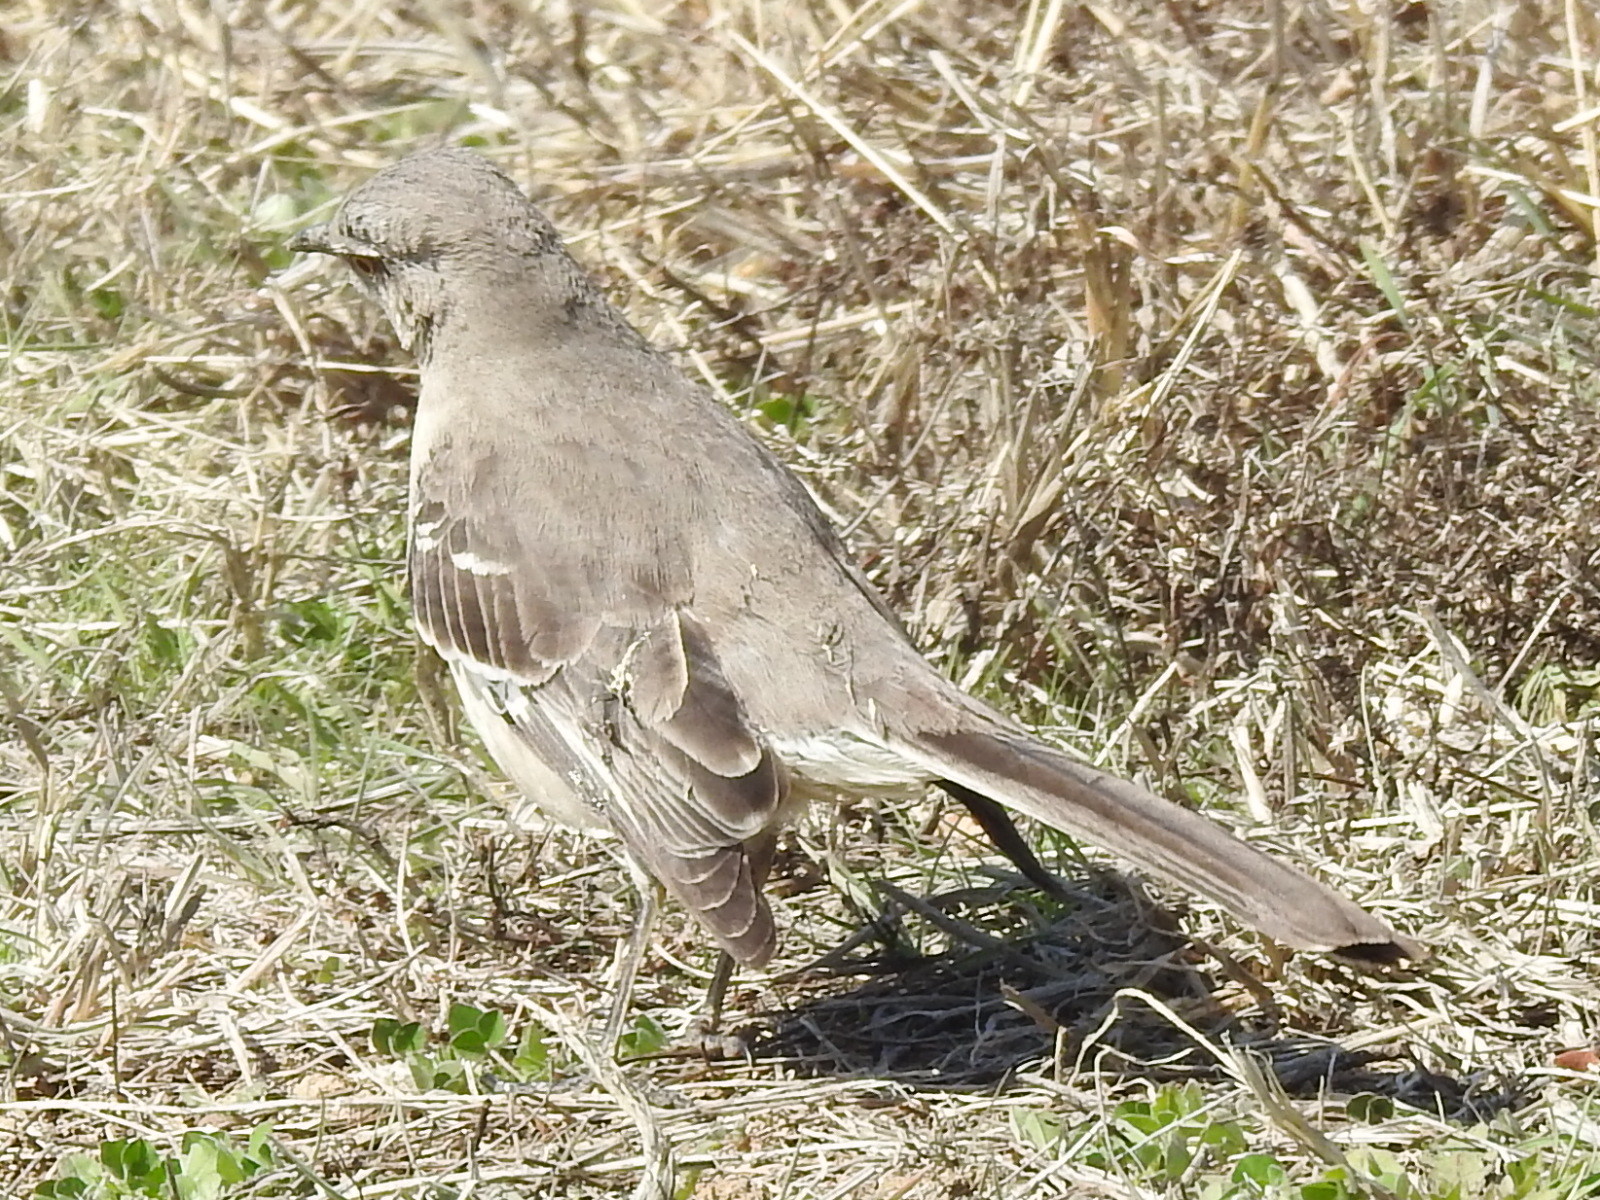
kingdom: Animalia
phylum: Chordata
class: Aves
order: Passeriformes
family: Mimidae
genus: Mimus
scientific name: Mimus polyglottos
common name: Northern mockingbird
